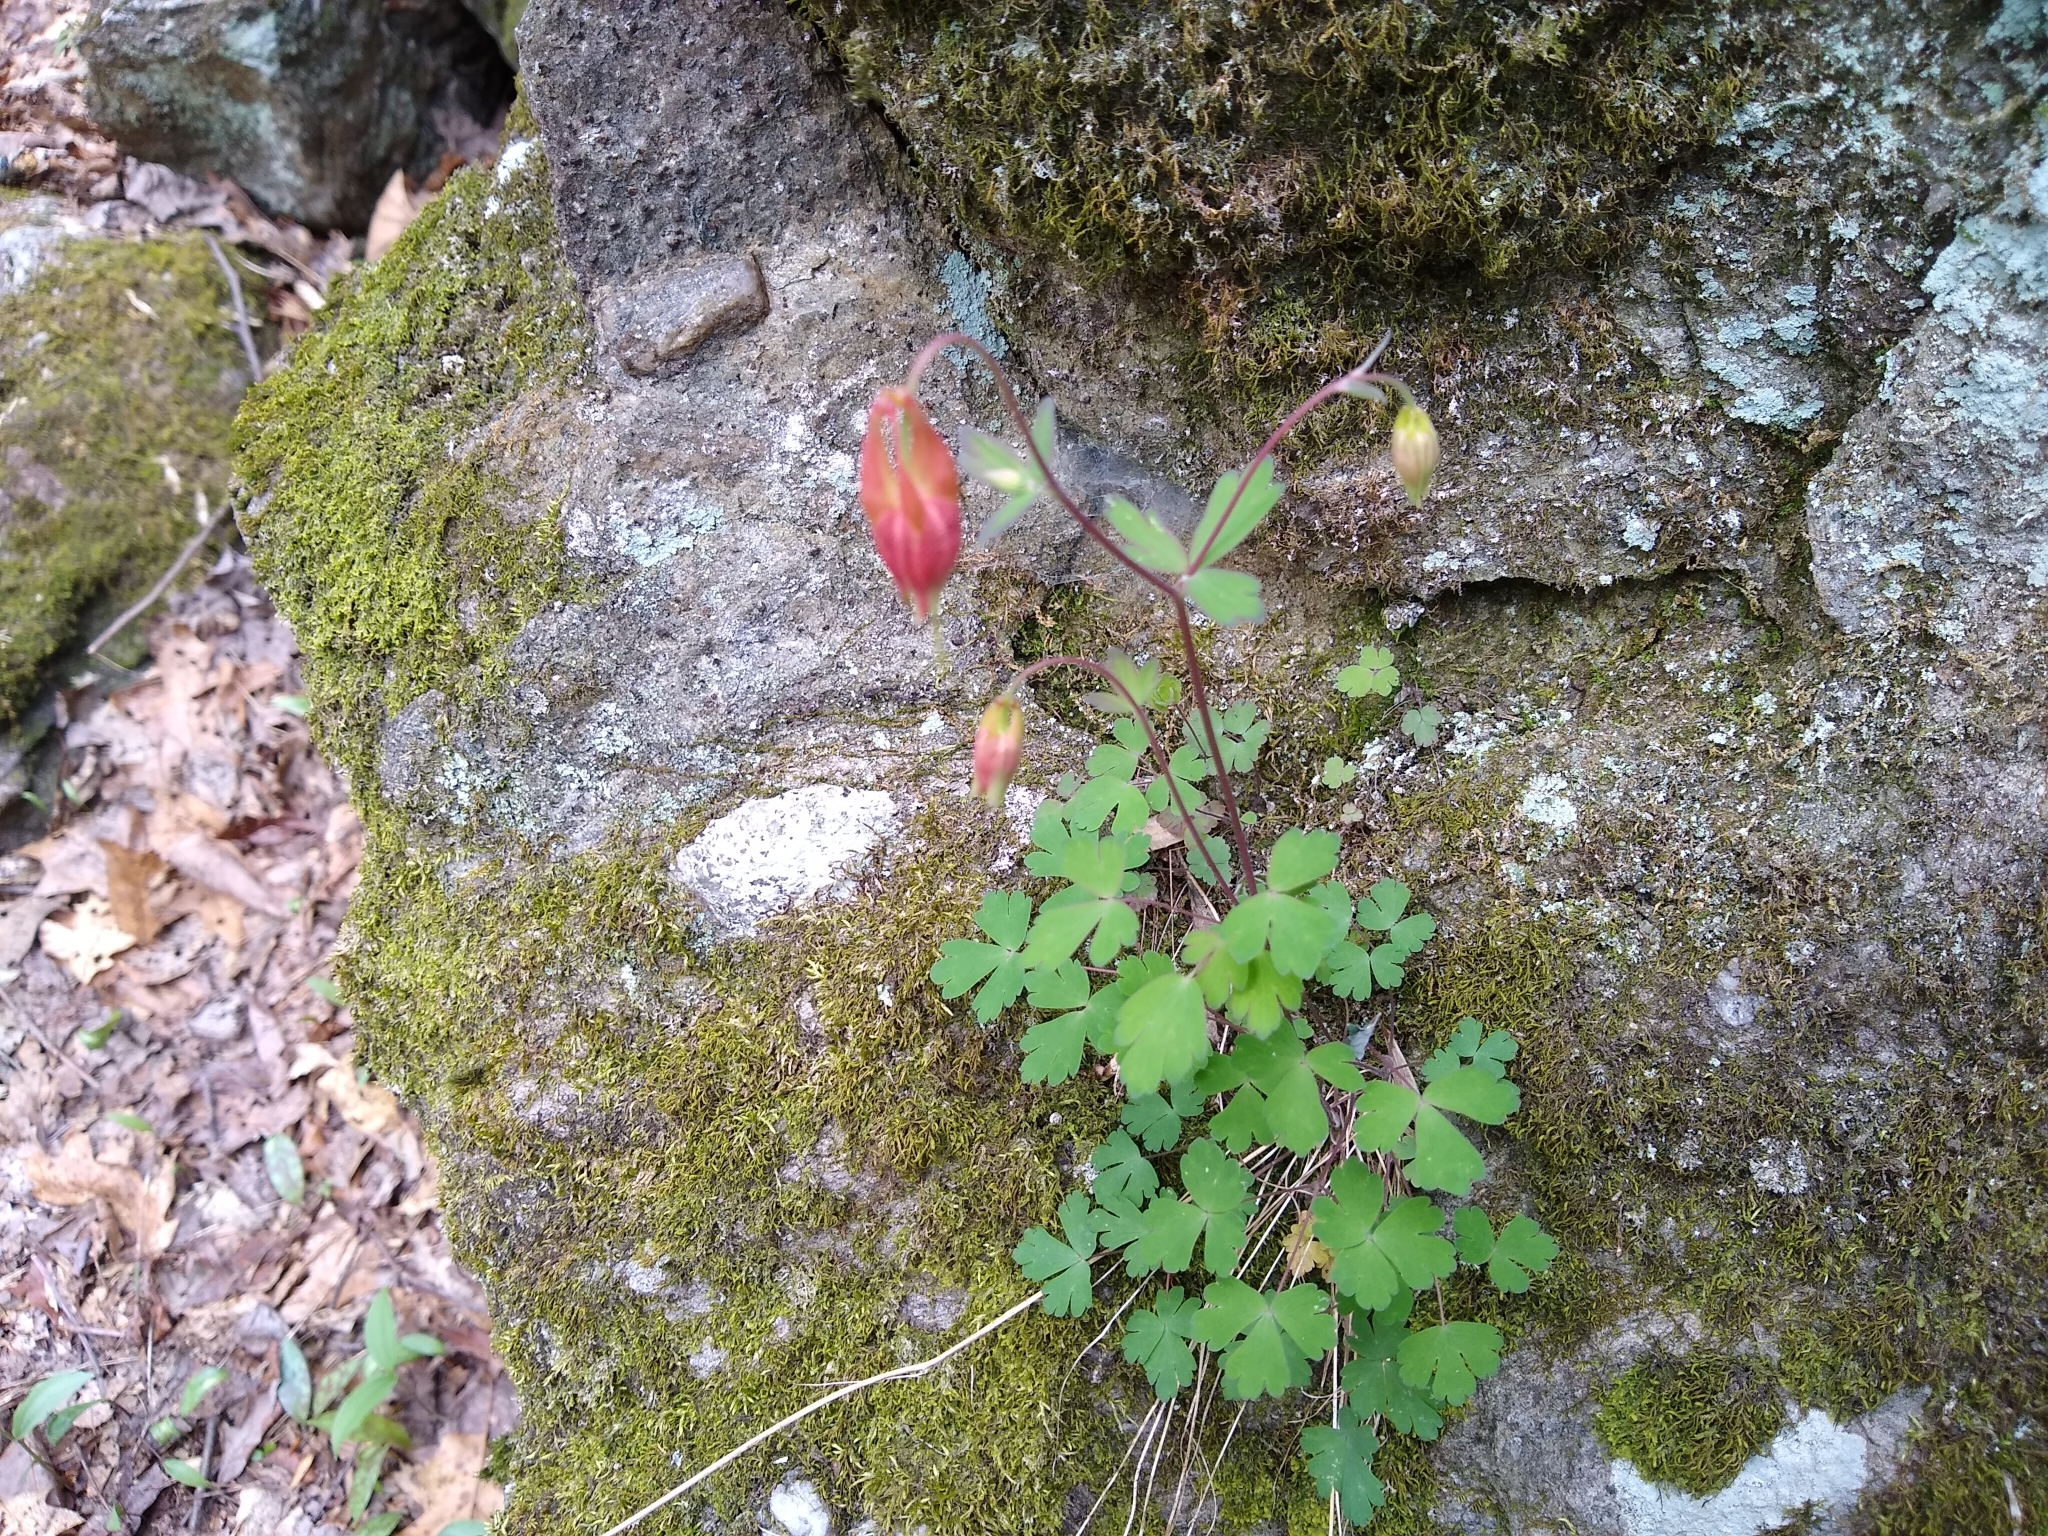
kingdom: Plantae
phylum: Tracheophyta
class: Magnoliopsida
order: Ranunculales
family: Ranunculaceae
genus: Aquilegia
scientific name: Aquilegia canadensis
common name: American columbine
